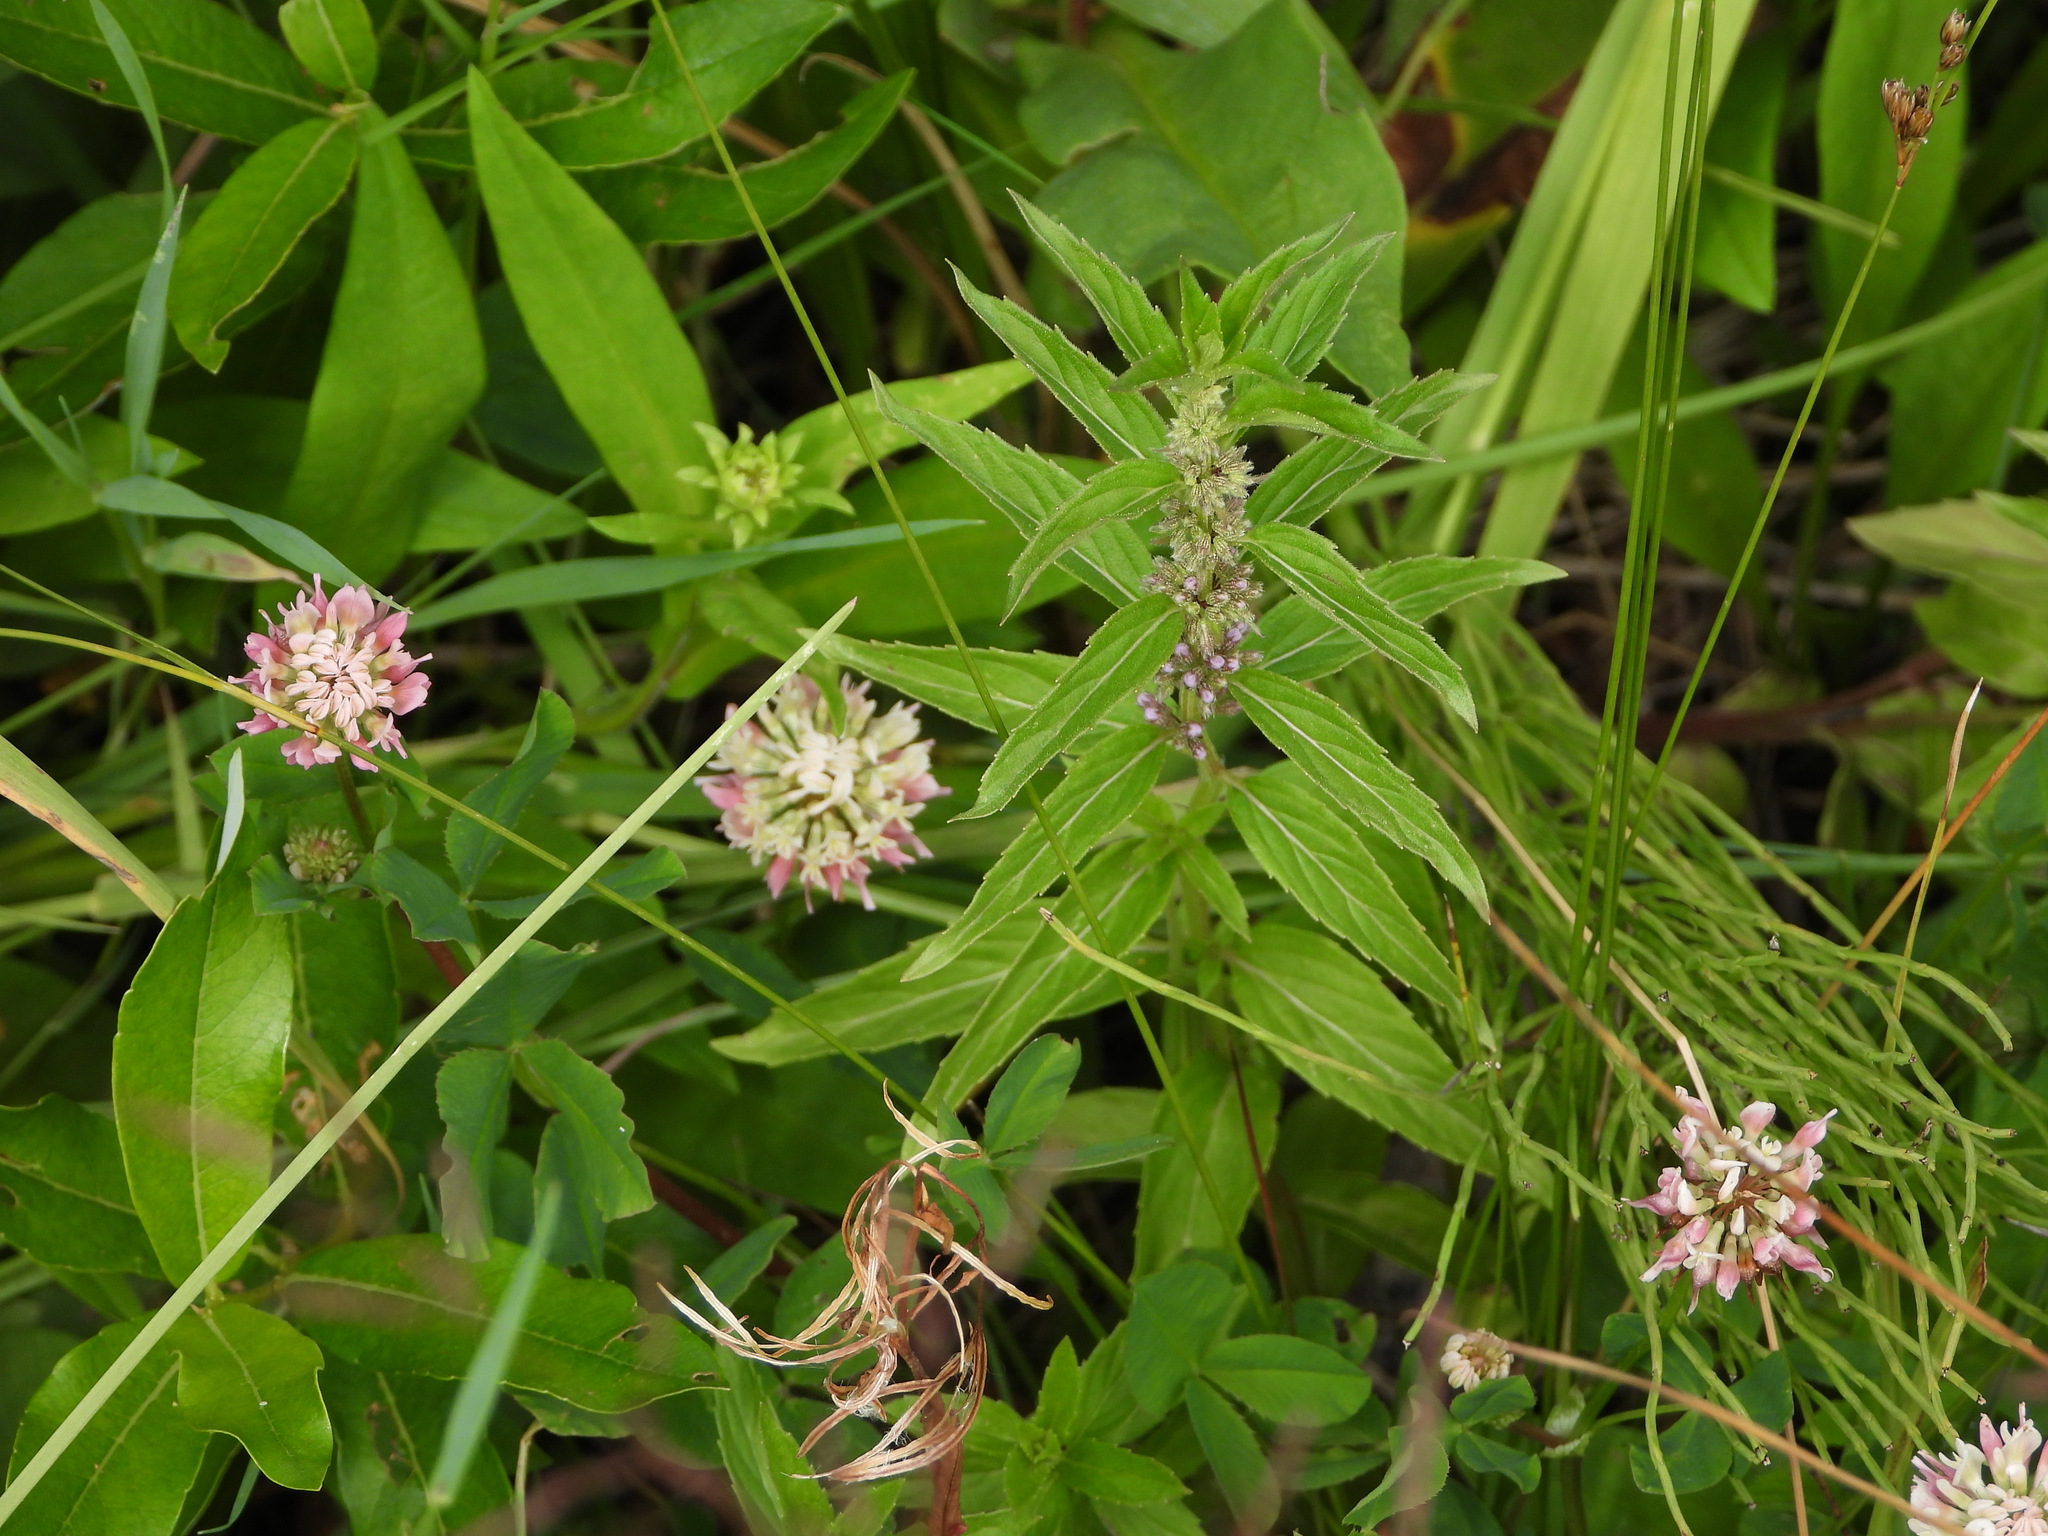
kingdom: Plantae
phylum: Tracheophyta
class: Magnoliopsida
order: Lamiales
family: Lamiaceae
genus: Mentha
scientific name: Mentha canadensis
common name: American corn mint
